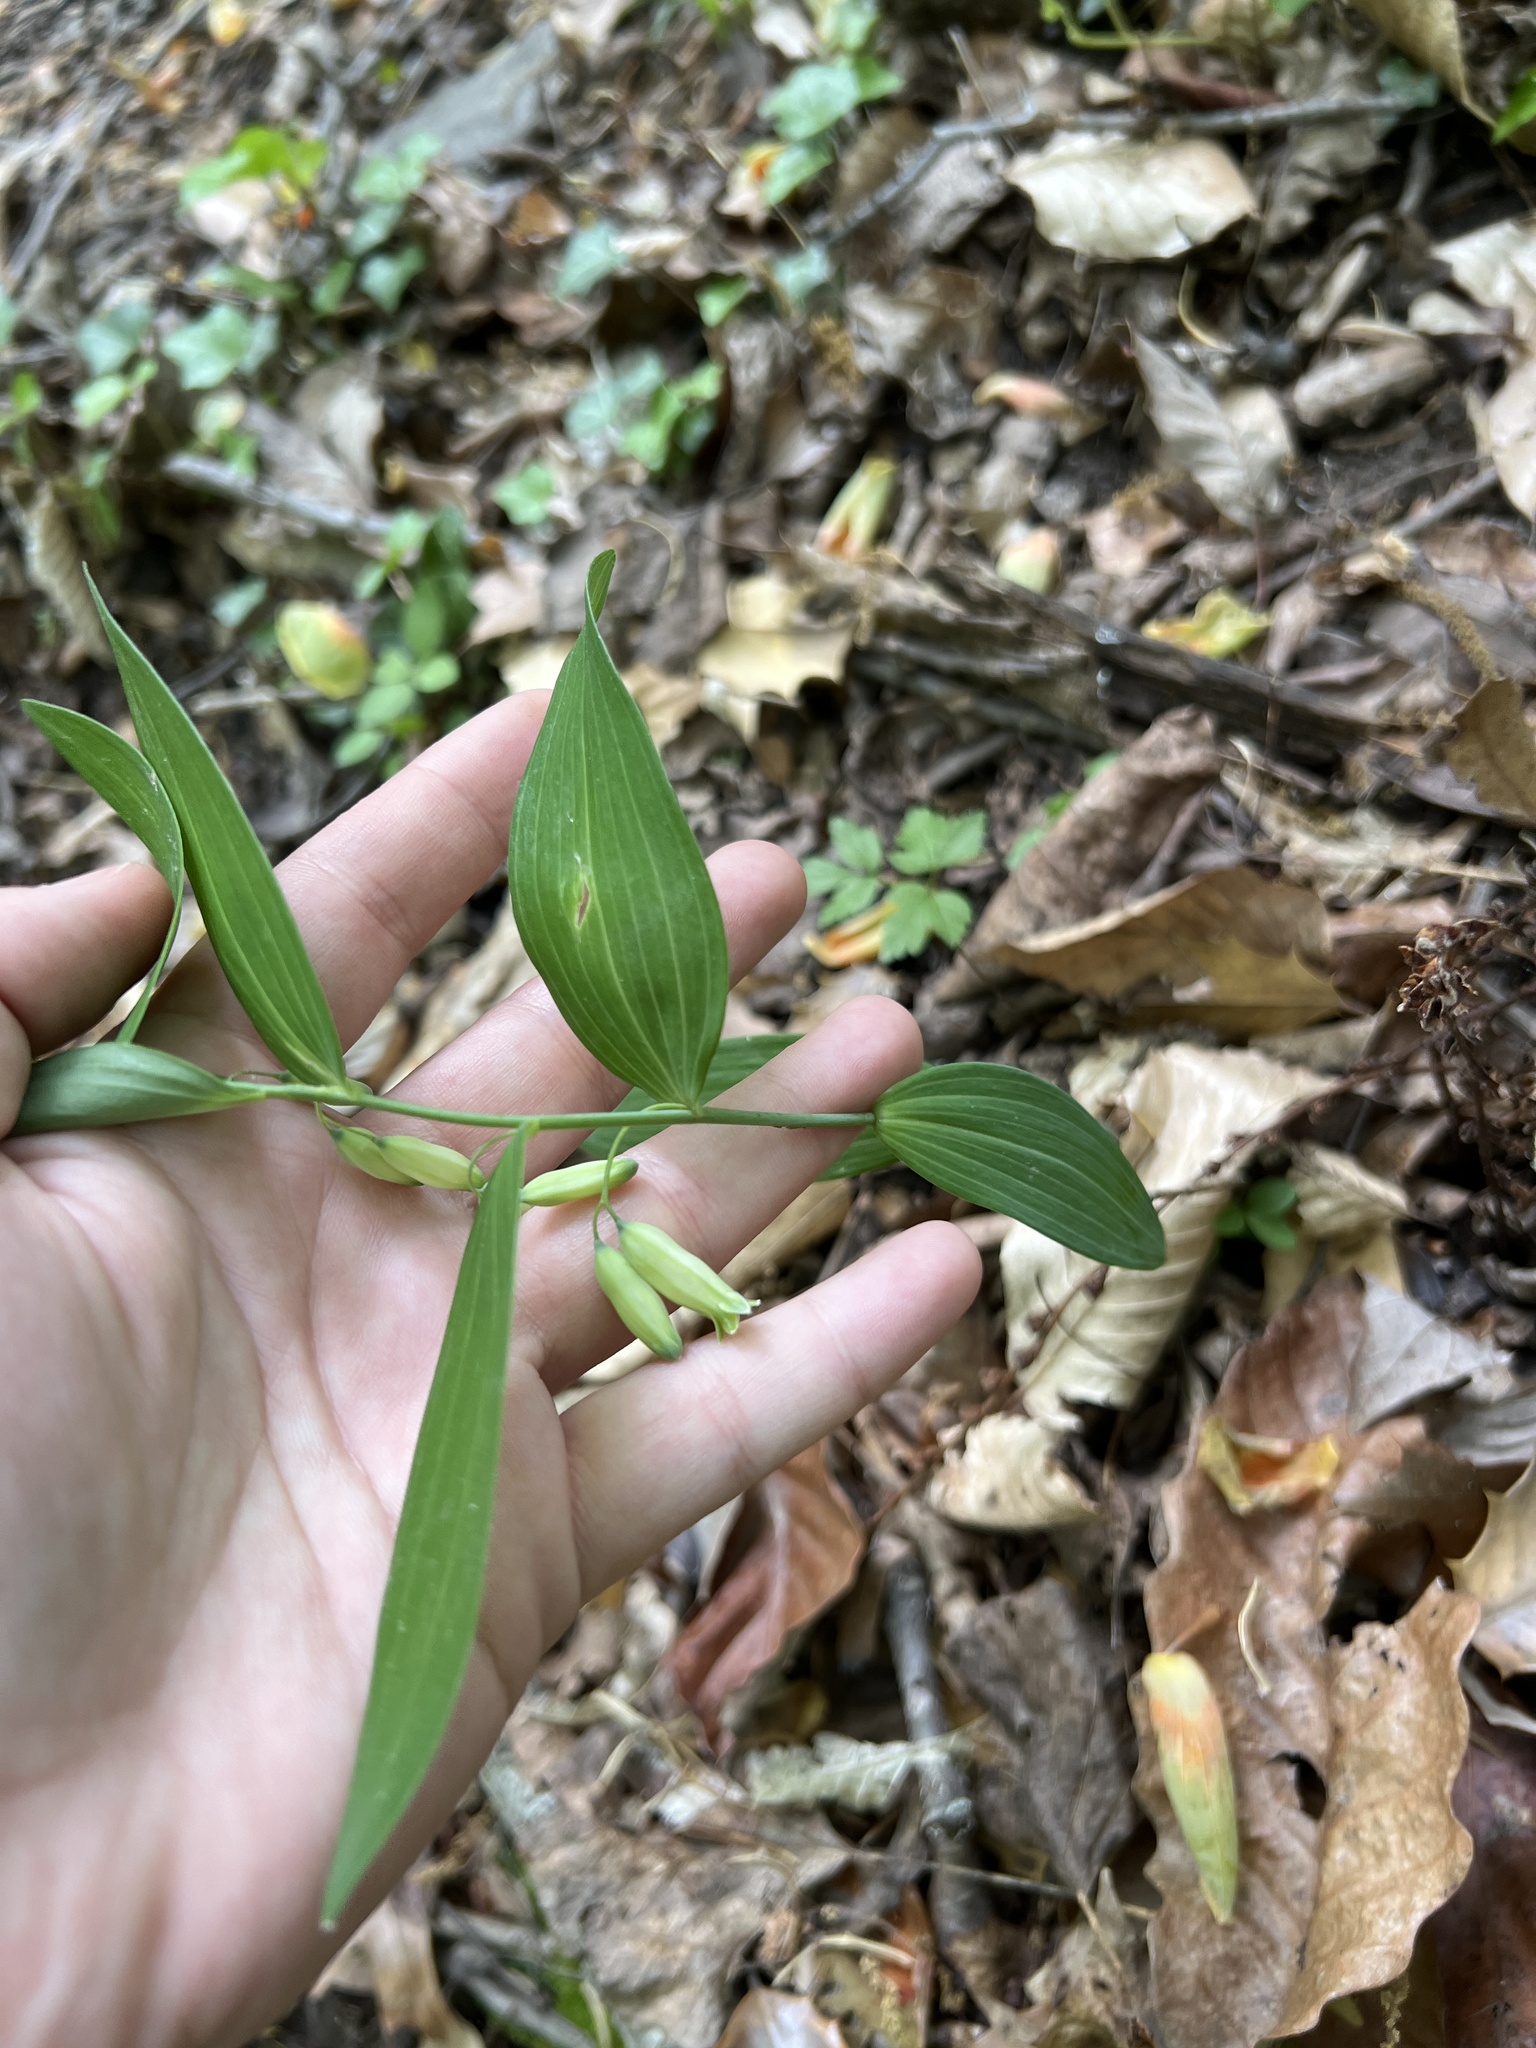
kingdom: Plantae
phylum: Tracheophyta
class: Liliopsida
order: Asparagales
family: Asparagaceae
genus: Polygonatum
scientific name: Polygonatum biflorum
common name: American solomon's-seal
